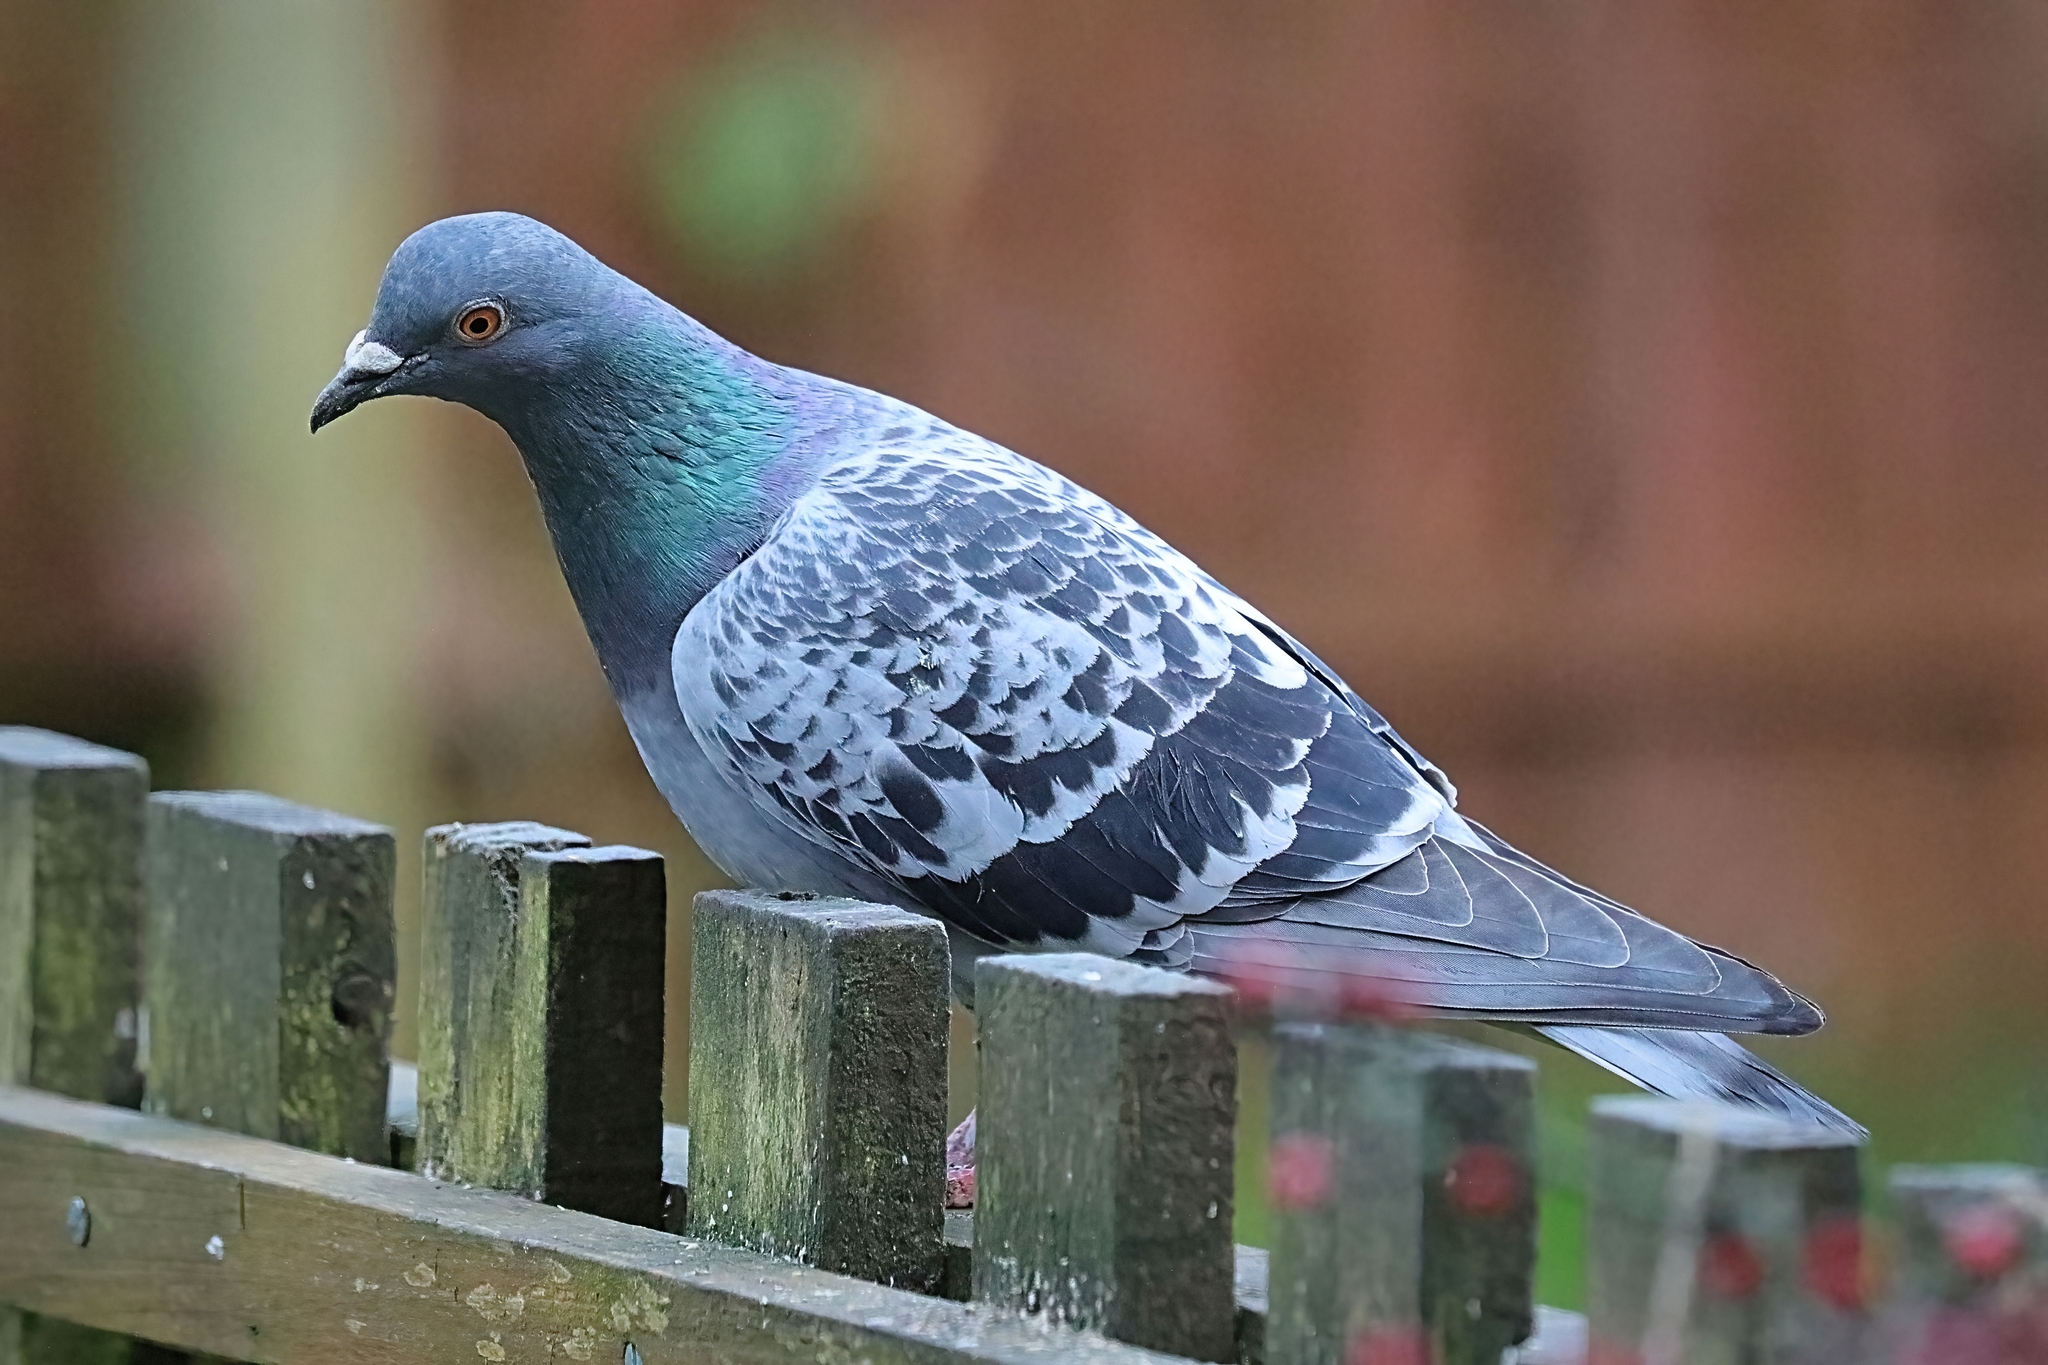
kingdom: Animalia
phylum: Chordata
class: Aves
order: Columbiformes
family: Columbidae
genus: Columba
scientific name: Columba livia
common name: Rock pigeon
